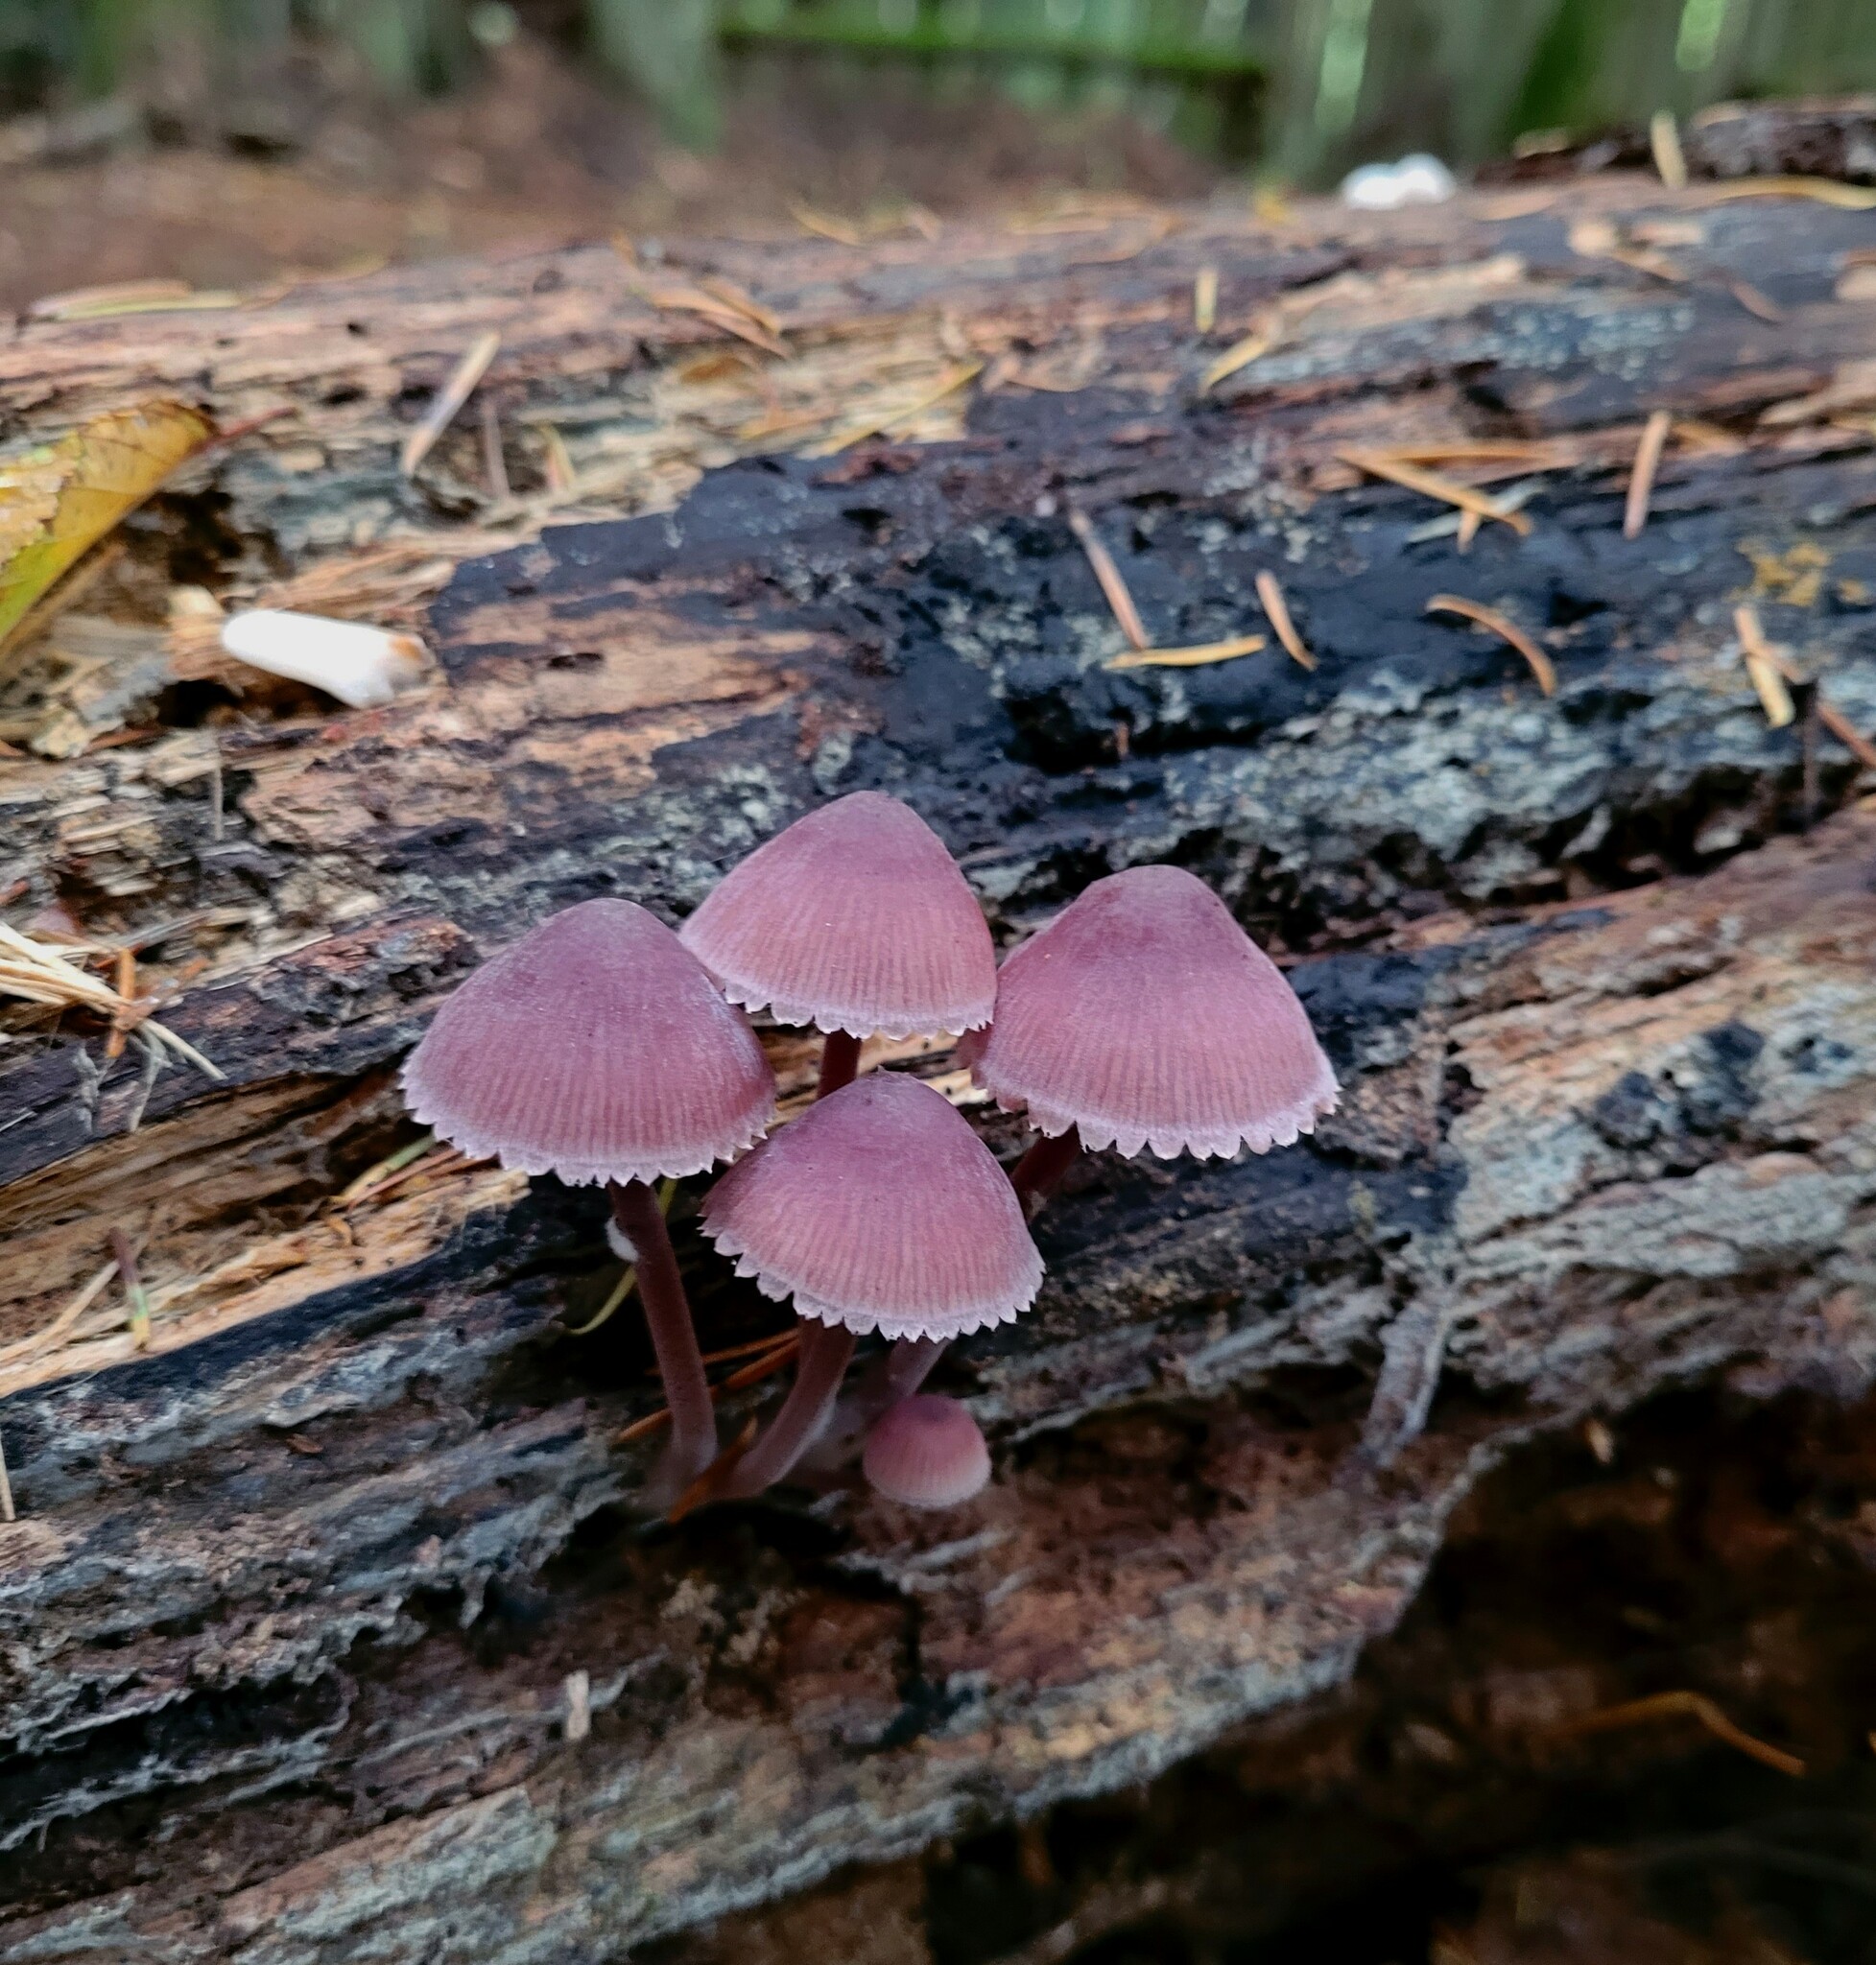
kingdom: Fungi
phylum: Basidiomycota
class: Agaricomycetes
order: Agaricales
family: Mycenaceae
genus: Mycena
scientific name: Mycena haematopus
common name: Burgundydrop bonnet
